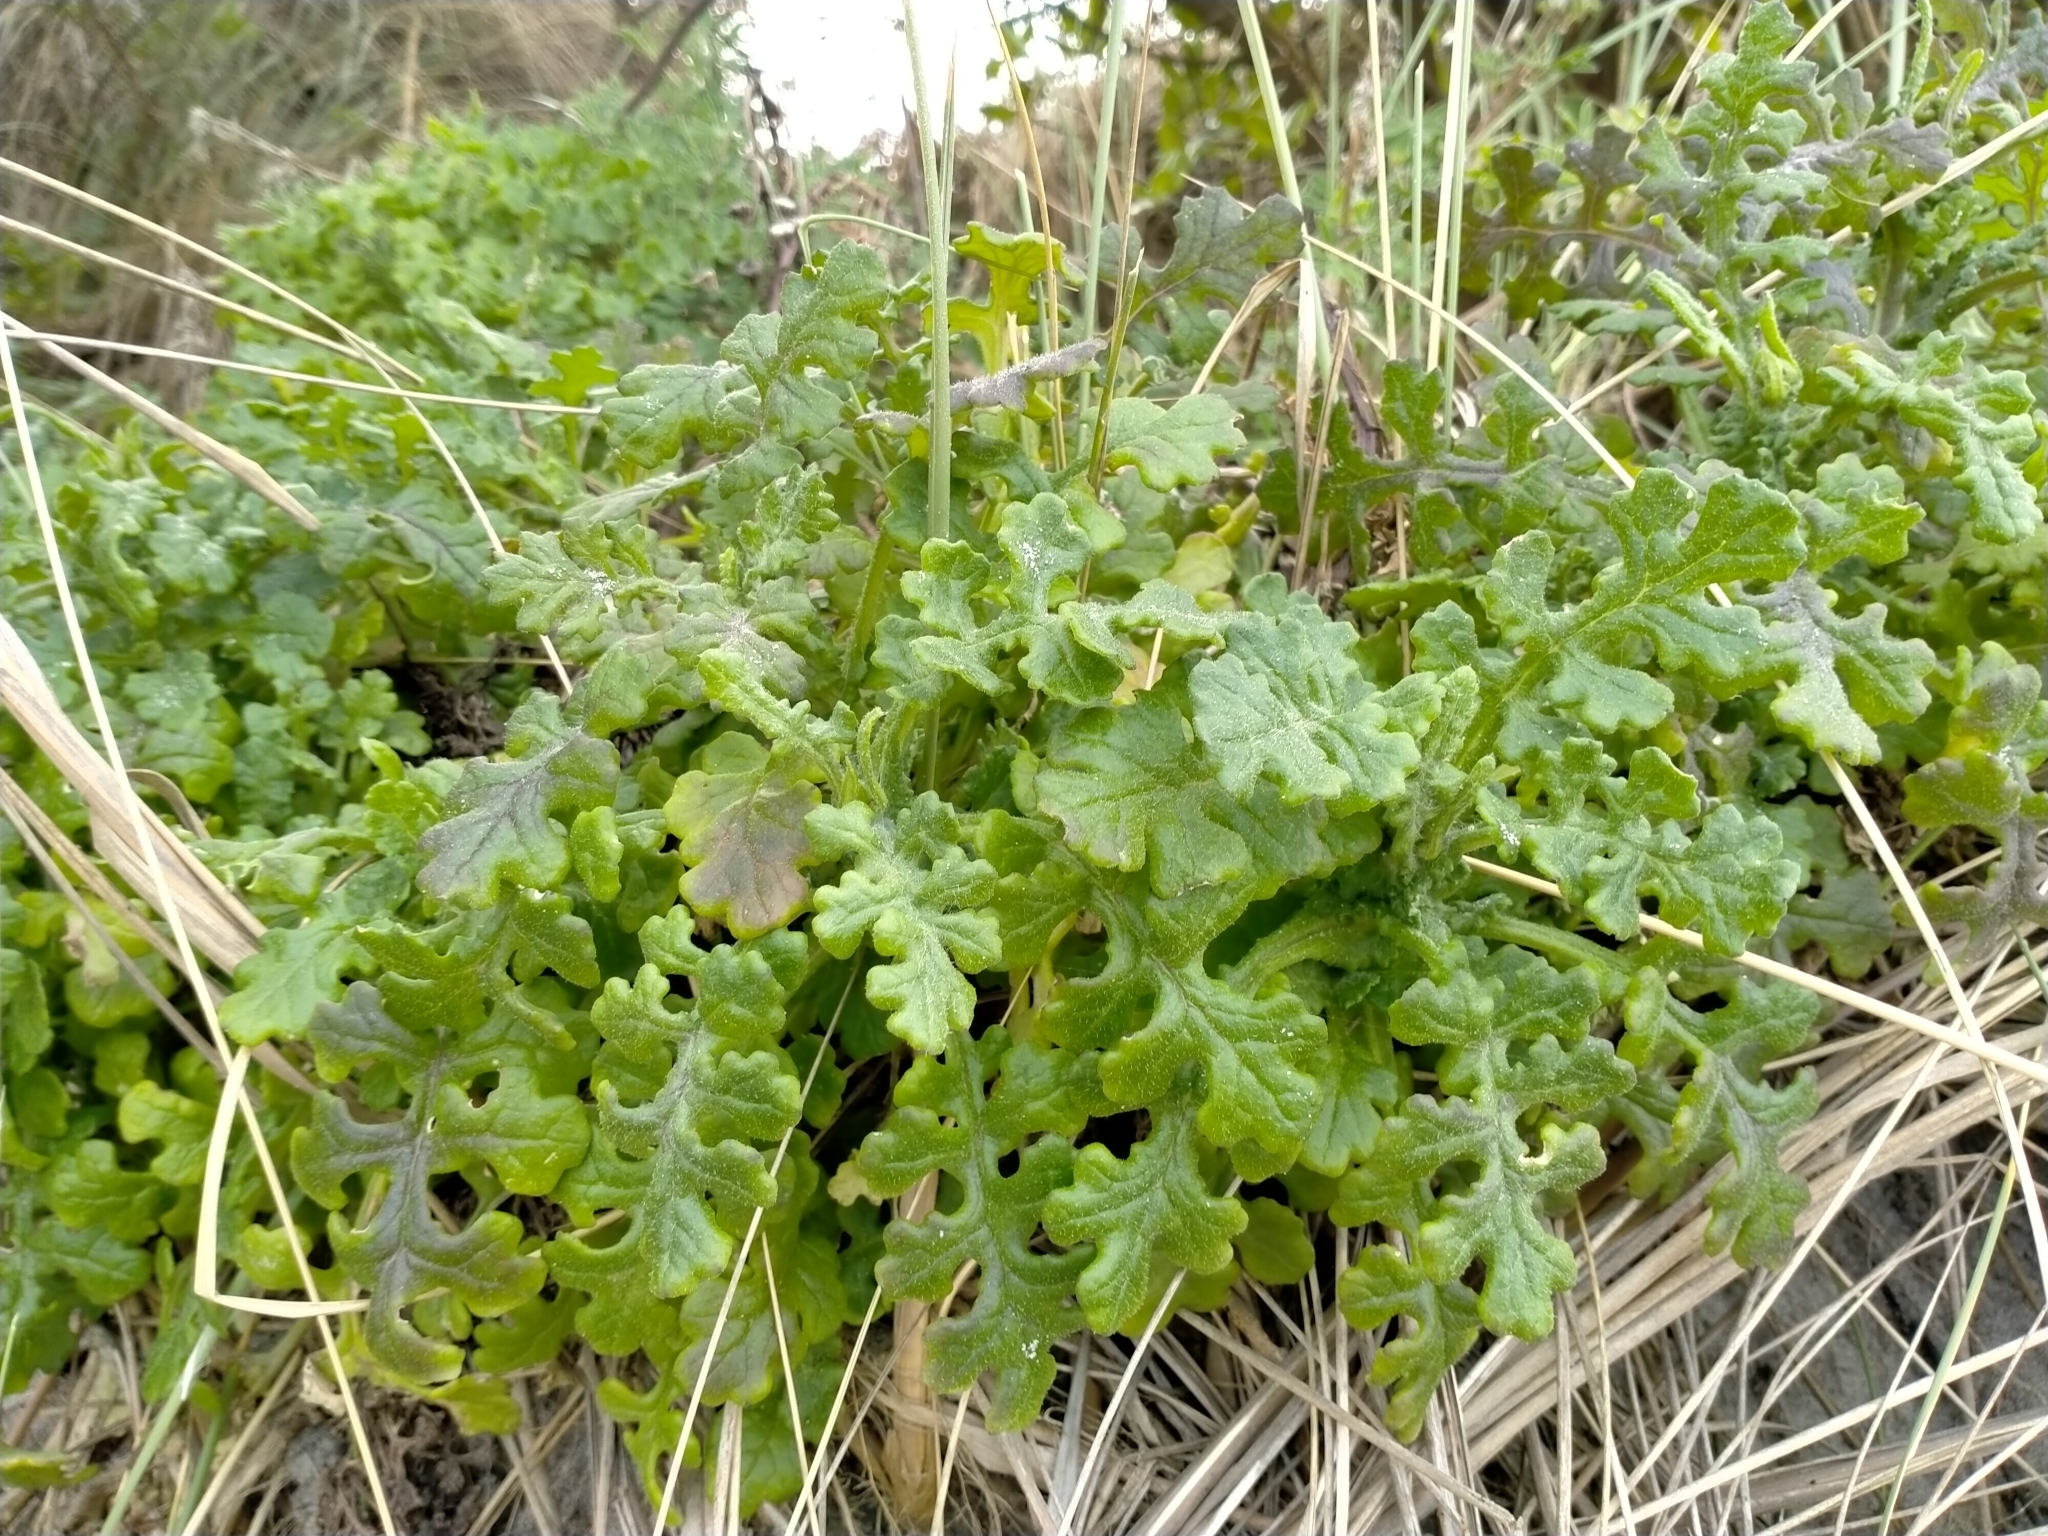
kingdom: Plantae
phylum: Tracheophyta
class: Magnoliopsida
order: Asterales
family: Asteraceae
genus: Senecio
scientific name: Senecio elegans
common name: Purple groundsel
